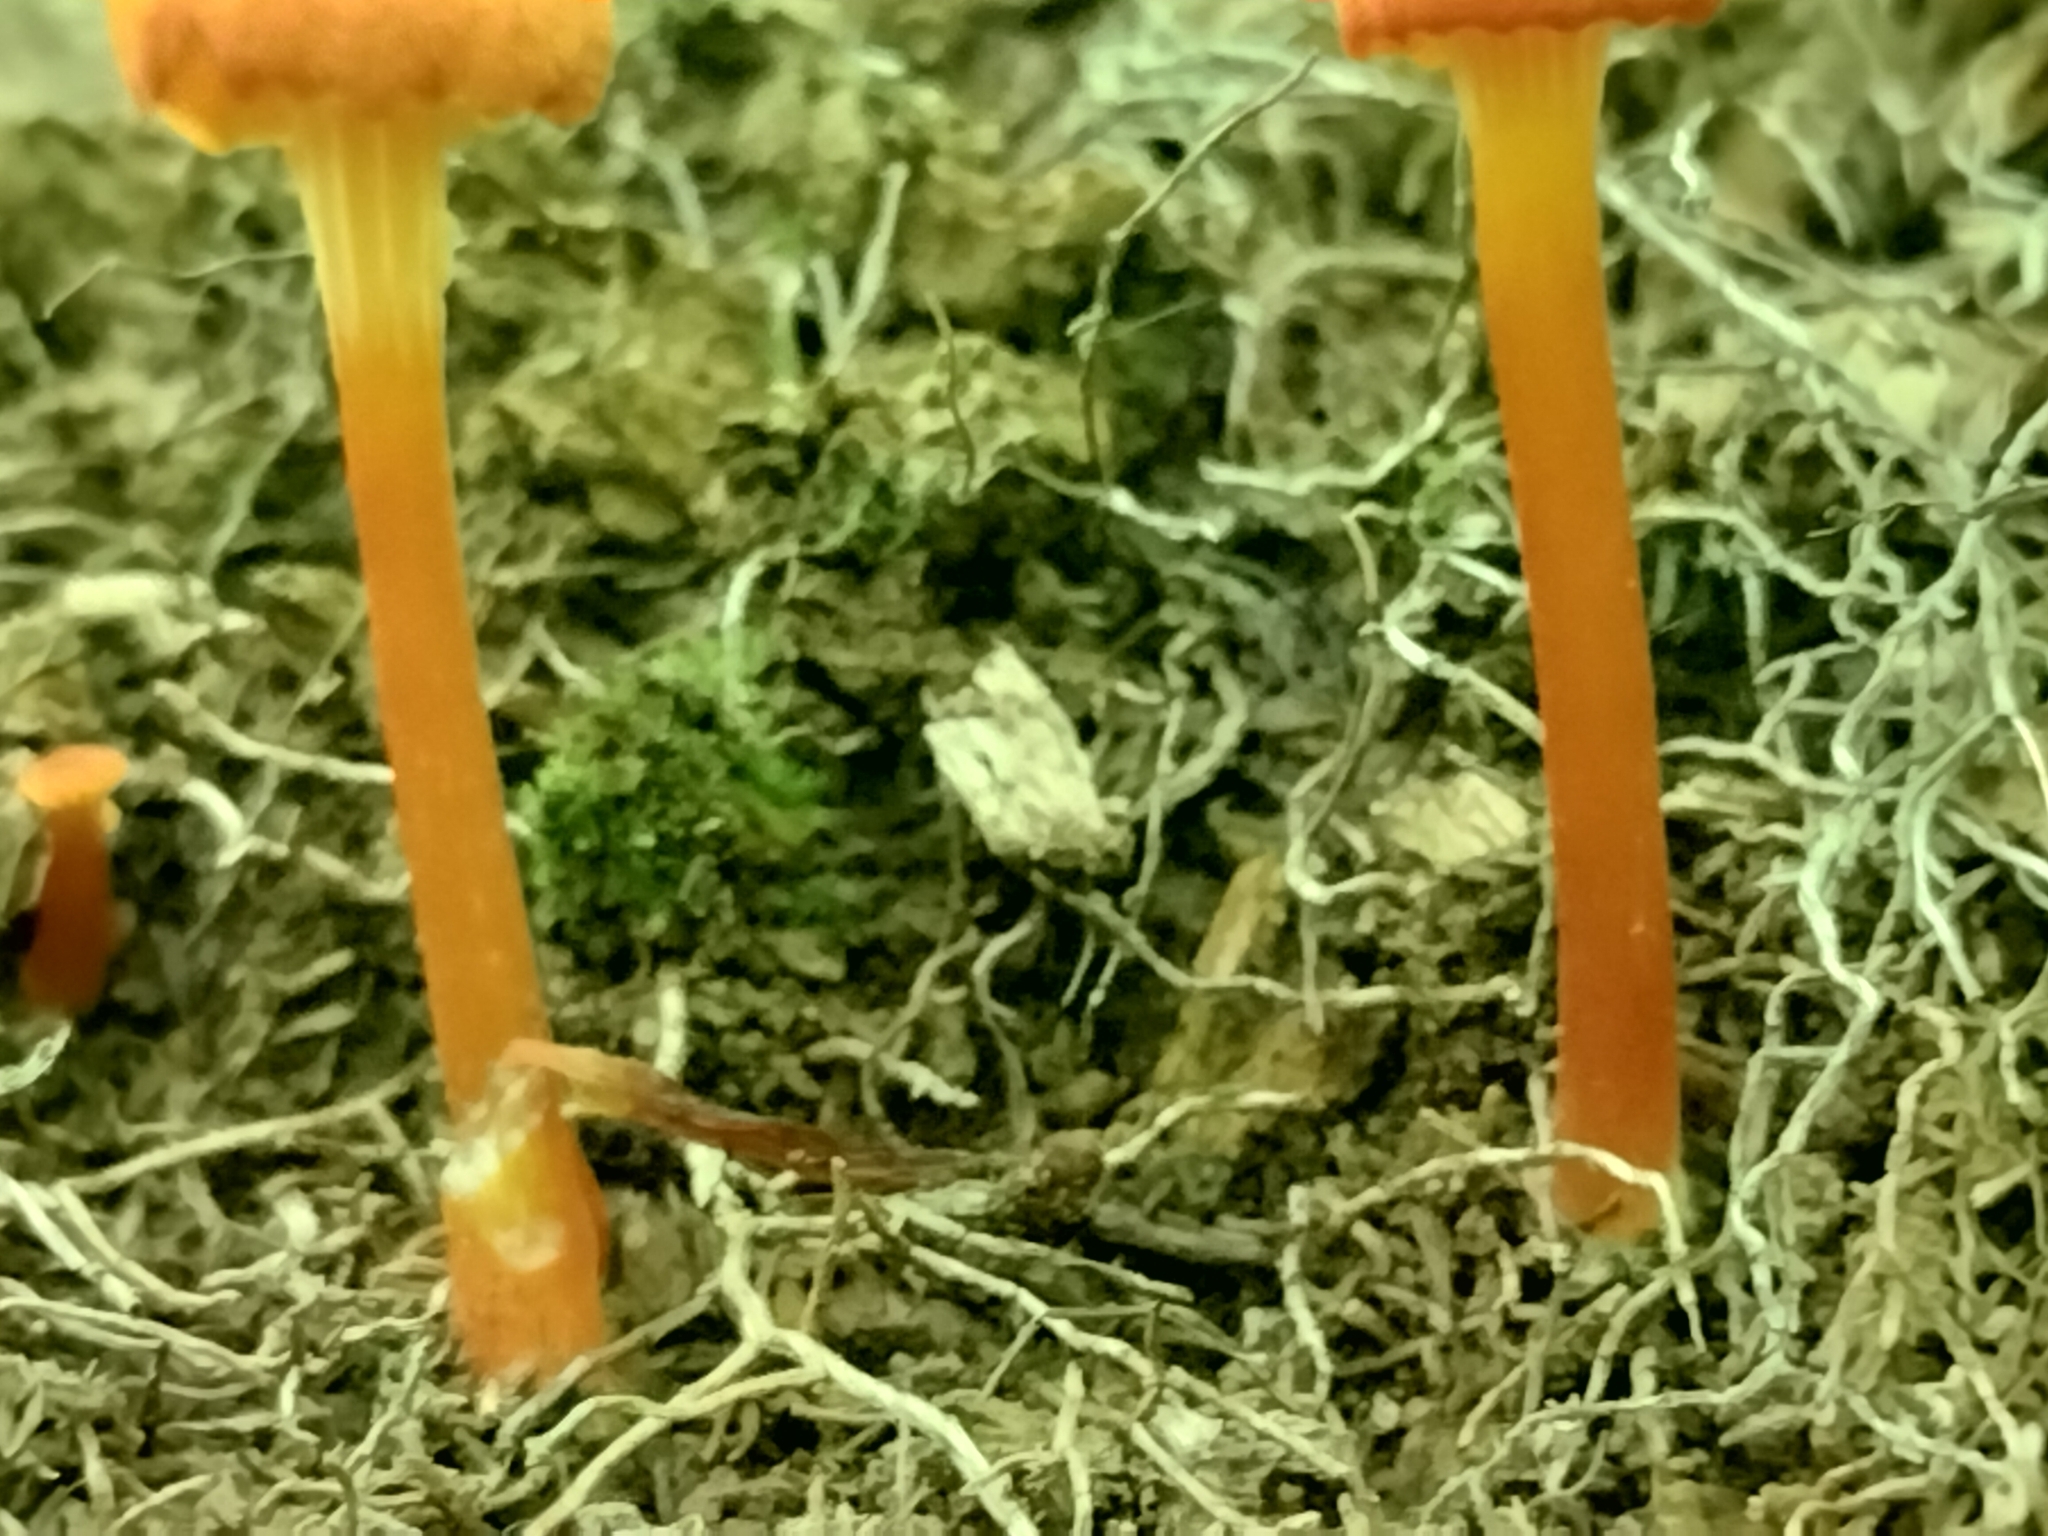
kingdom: Fungi
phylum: Basidiomycota
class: Agaricomycetes
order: Agaricales
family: Hygrophoraceae
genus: Hygrocybe
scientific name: Hygrocybe cantharellus
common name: Goblet waxcap
